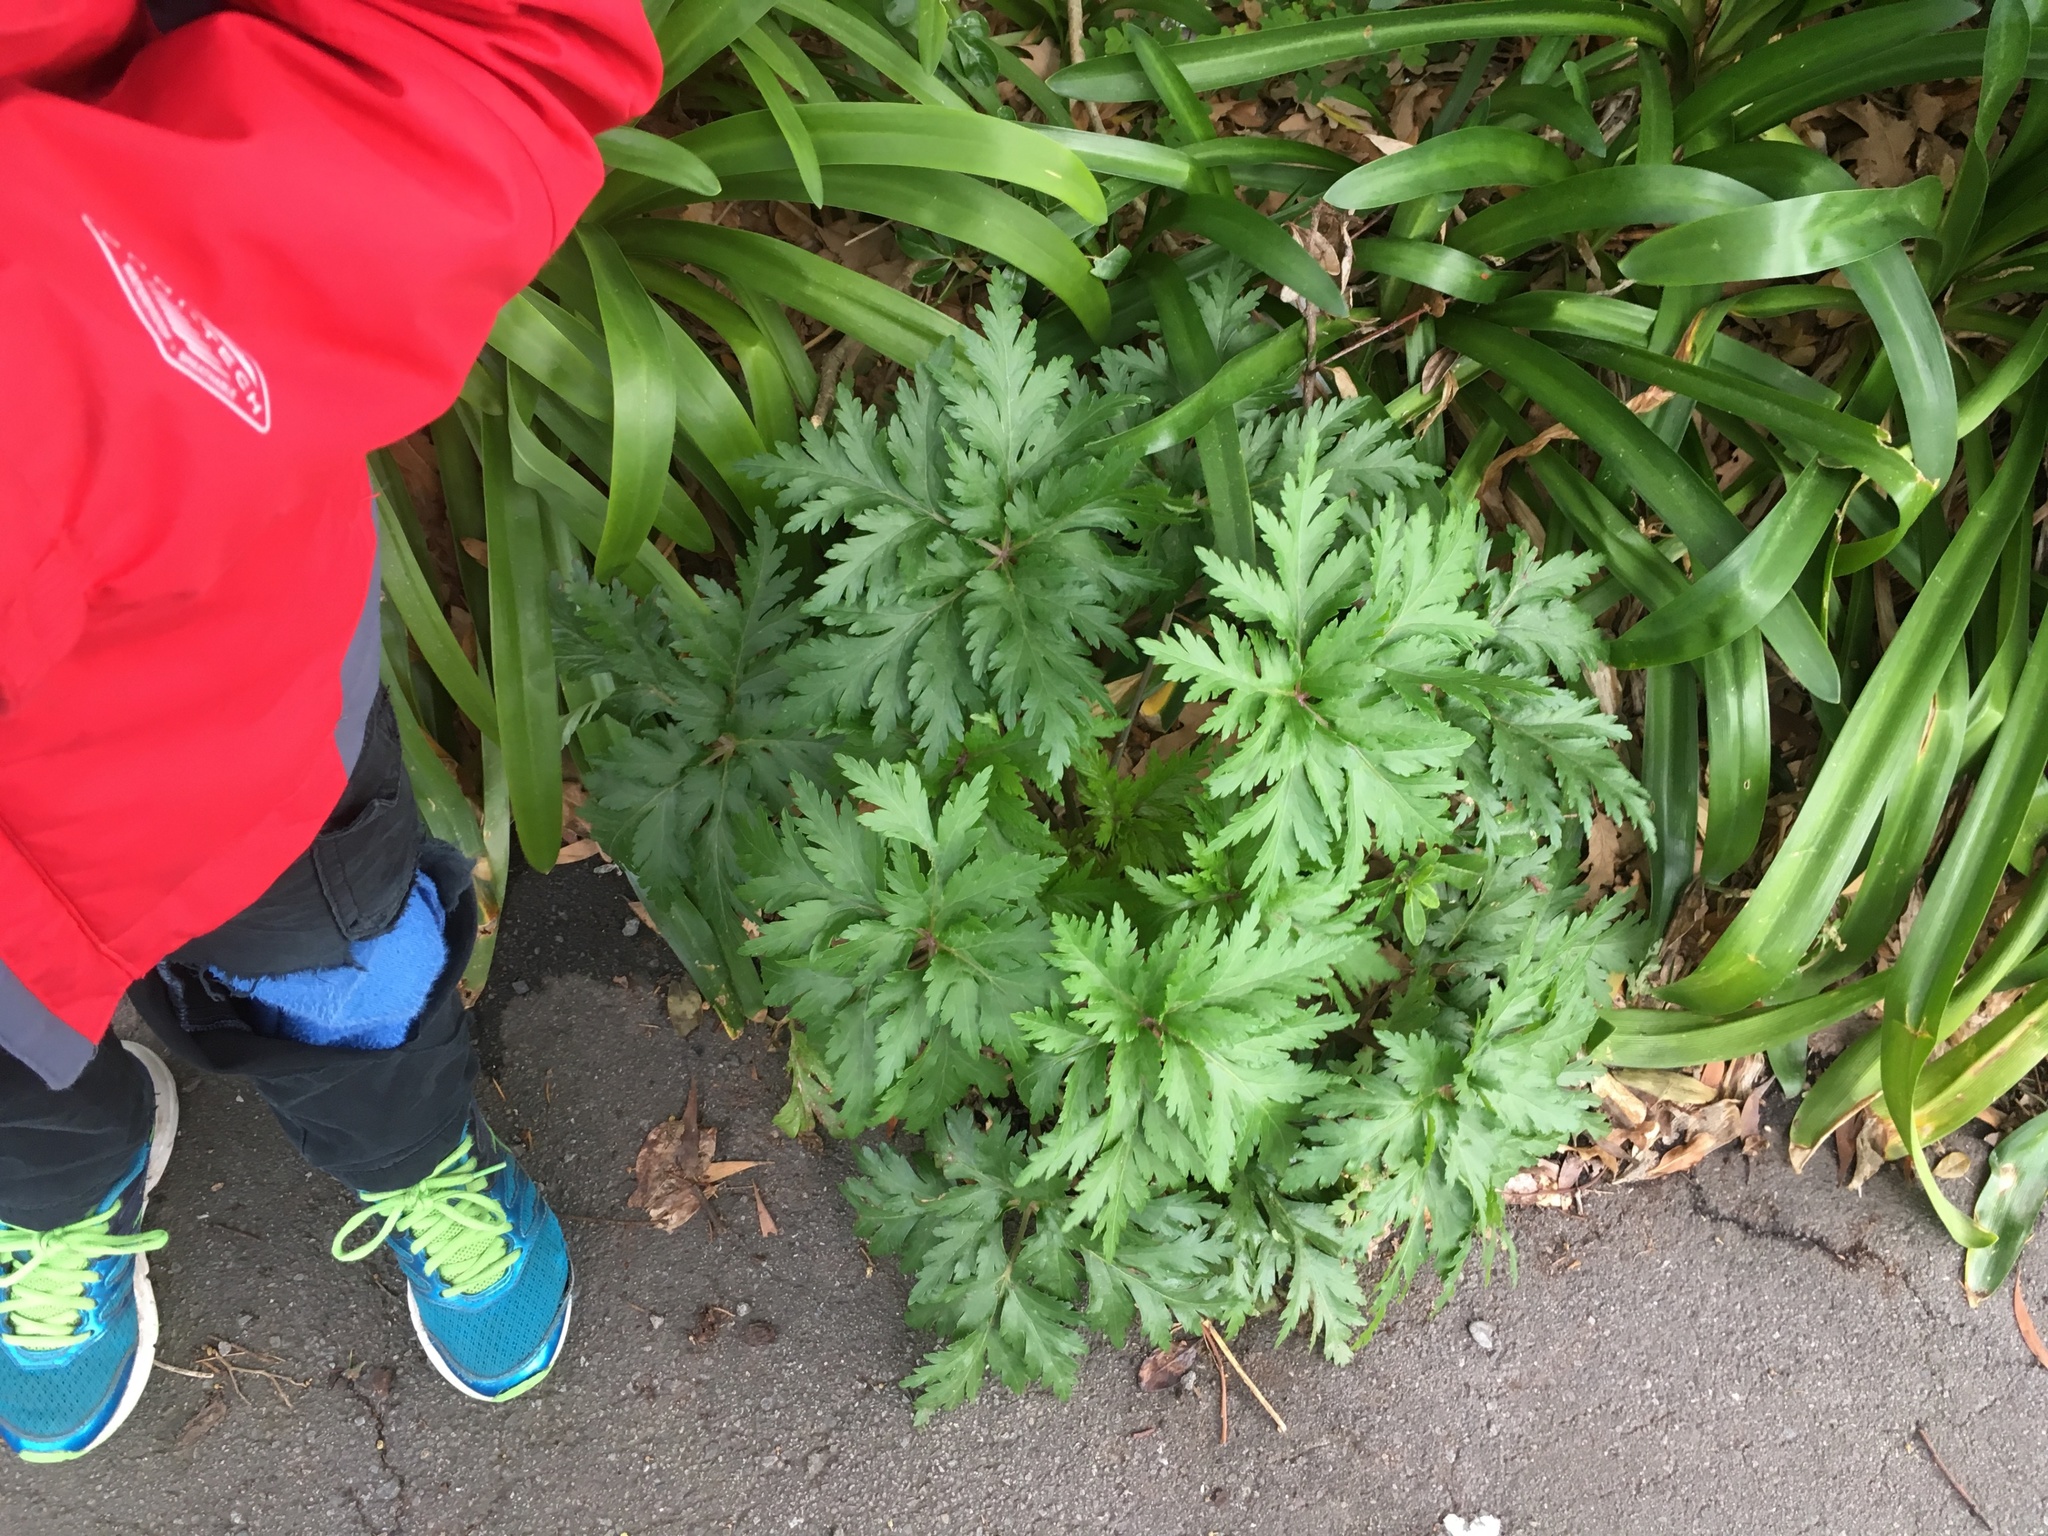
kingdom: Plantae
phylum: Tracheophyta
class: Magnoliopsida
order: Geraniales
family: Geraniaceae
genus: Geranium
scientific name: Geranium maderense
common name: Giant herb-robert
